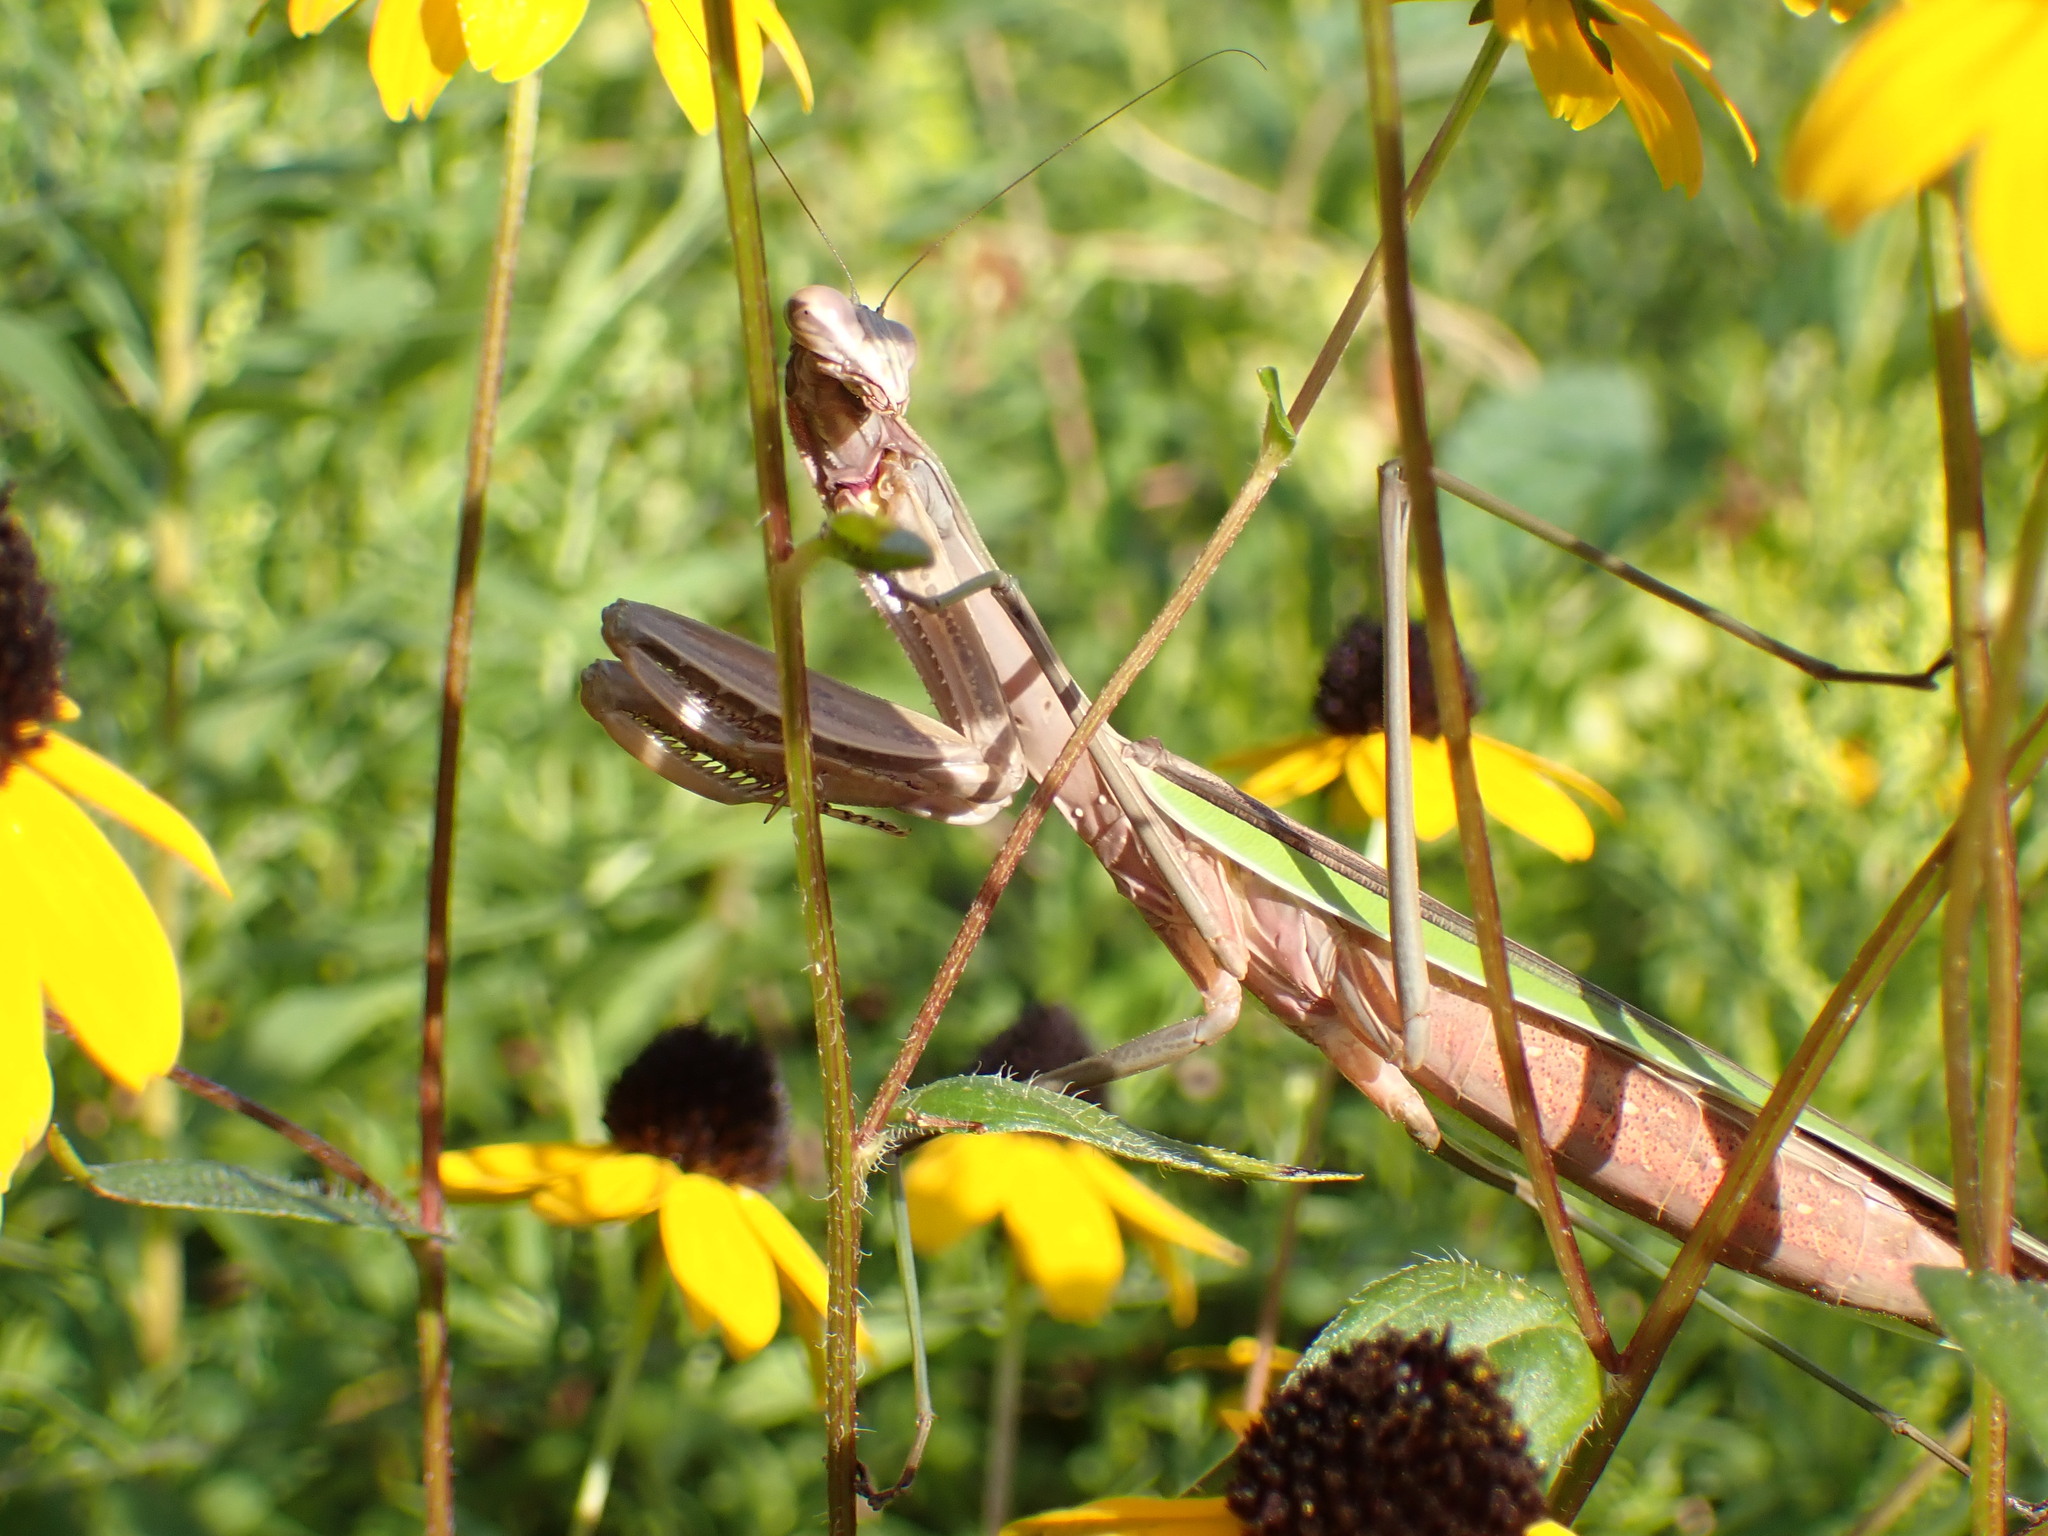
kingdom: Animalia
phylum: Arthropoda
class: Insecta
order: Mantodea
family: Mantidae
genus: Tenodera
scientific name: Tenodera sinensis
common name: Chinese mantis
